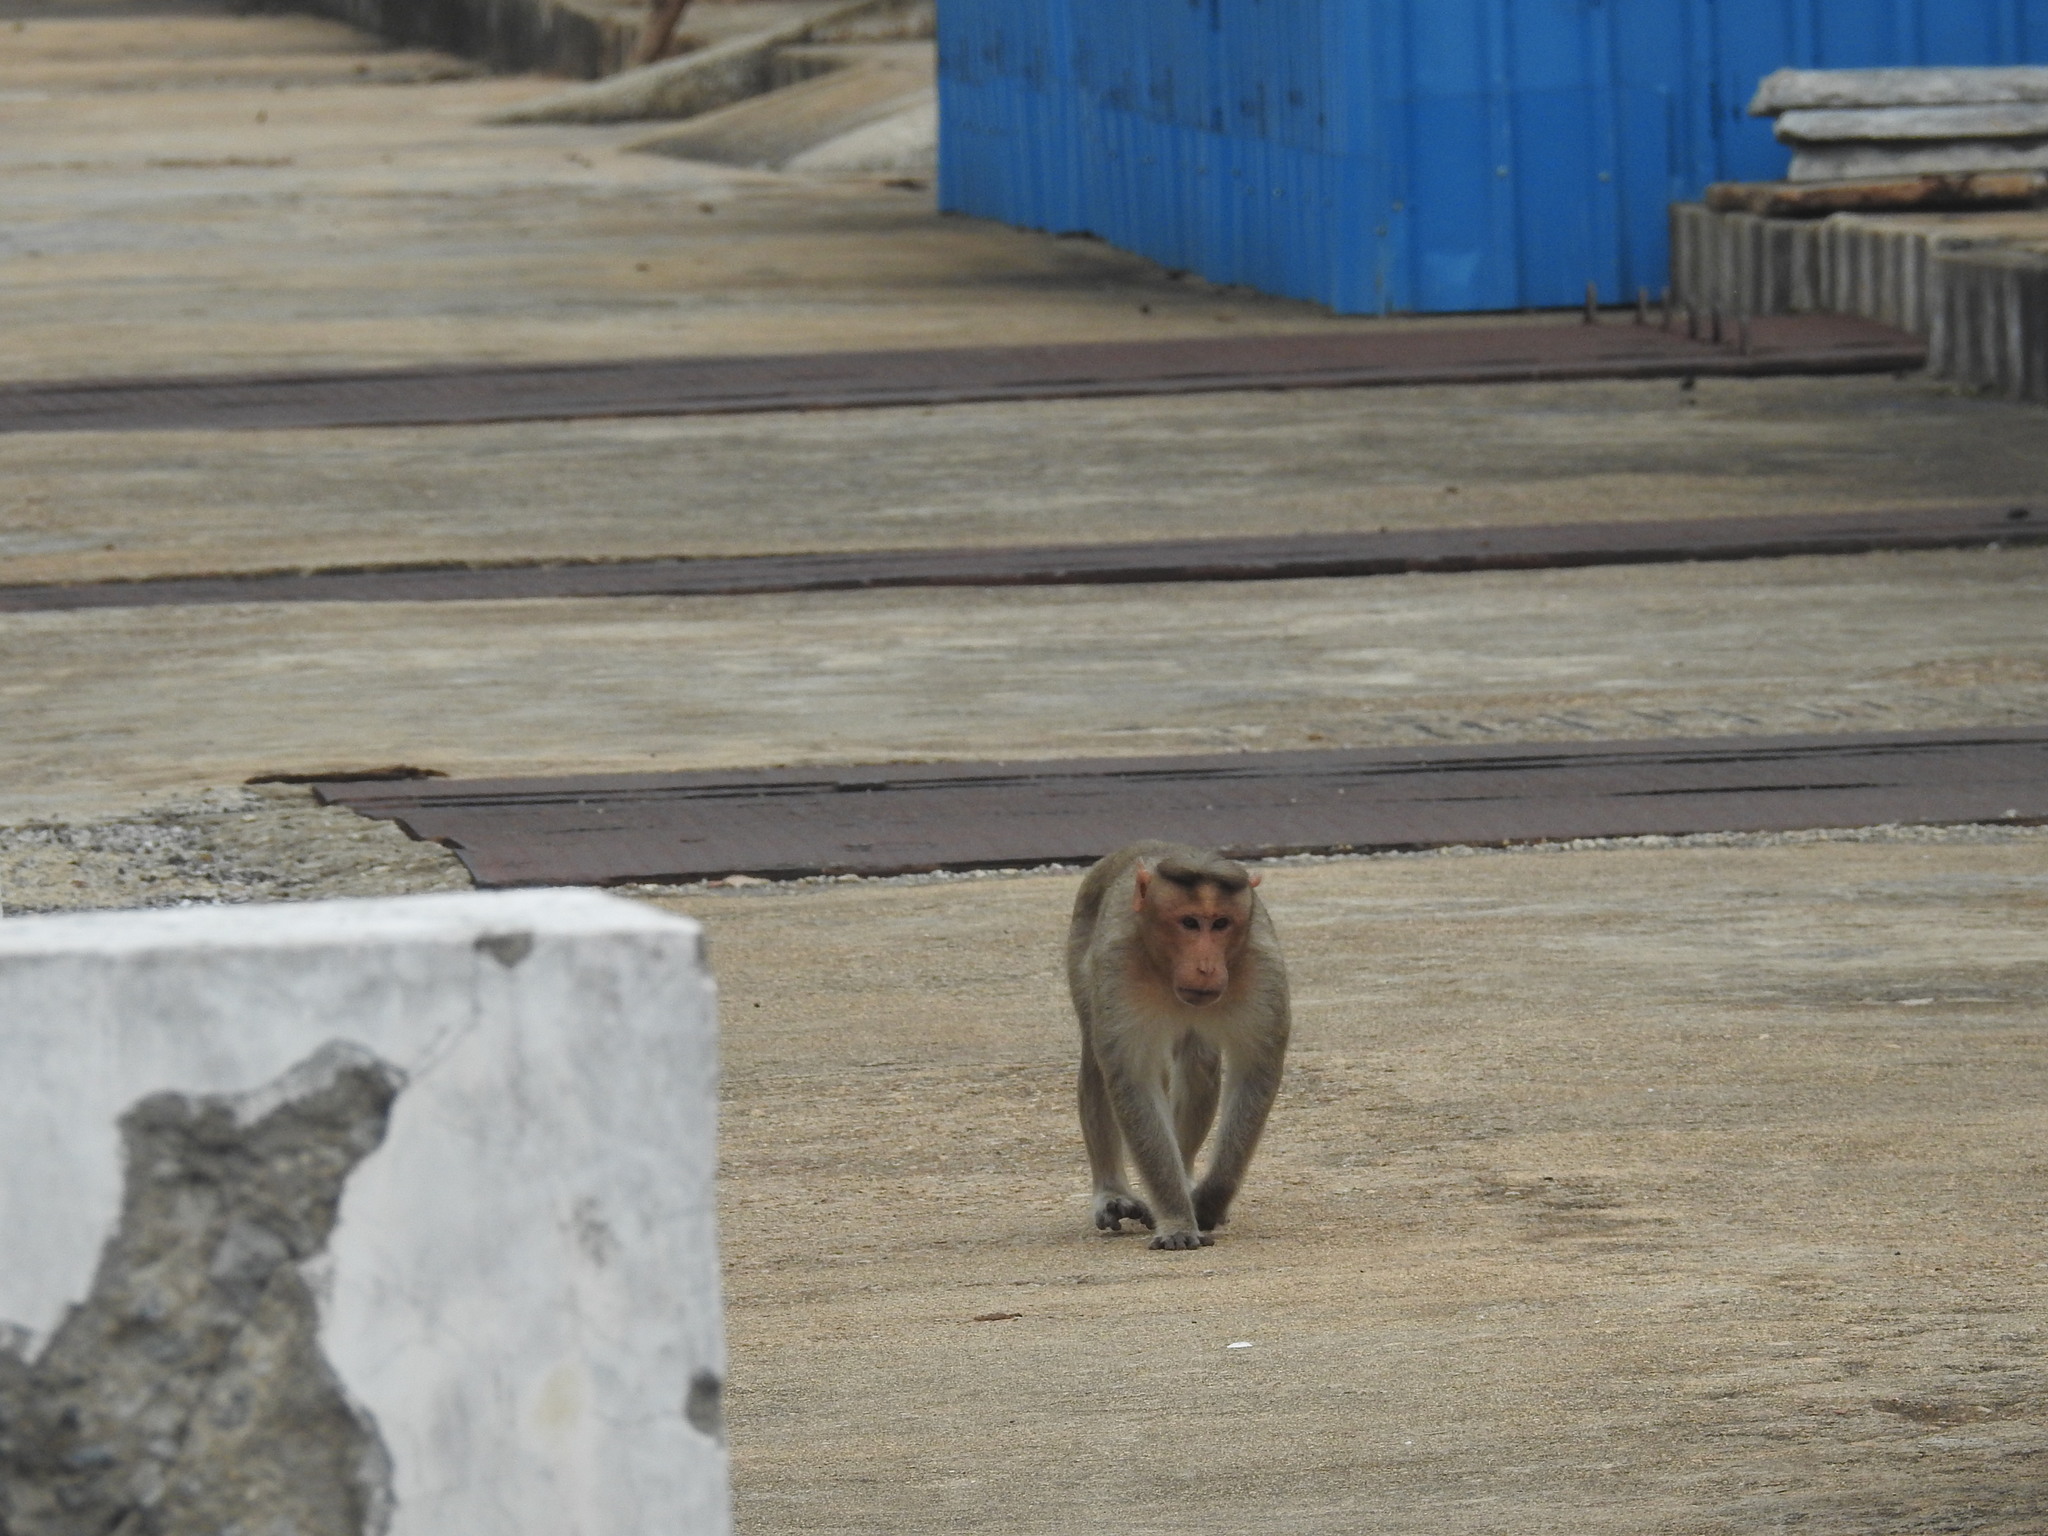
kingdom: Animalia
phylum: Chordata
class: Mammalia
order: Primates
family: Cercopithecidae
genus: Macaca
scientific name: Macaca radiata
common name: Bonnet macaque
